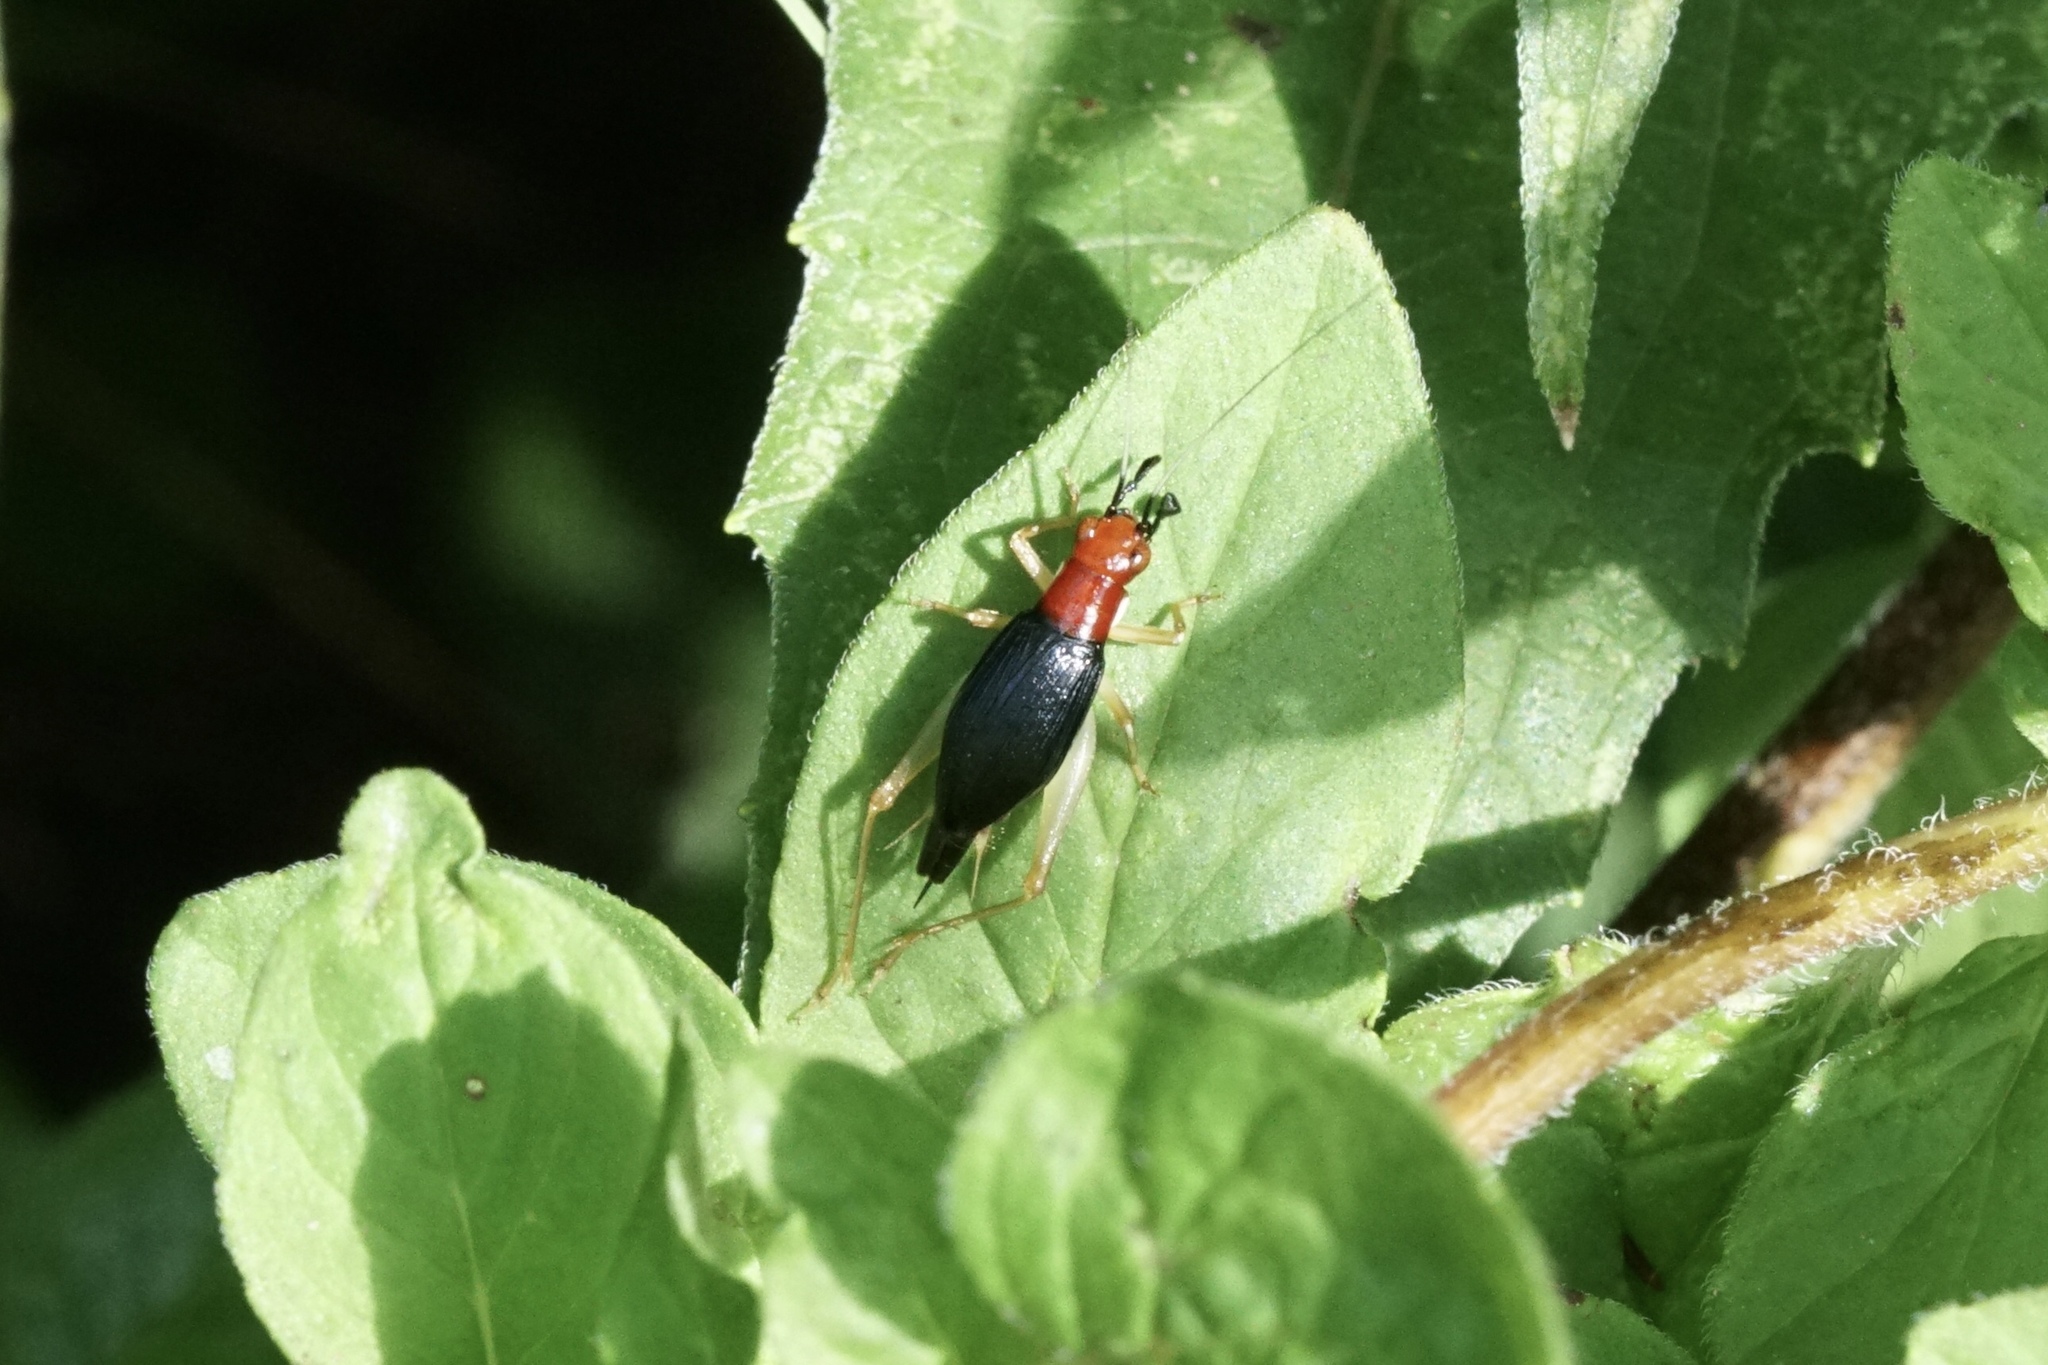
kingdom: Animalia
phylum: Arthropoda
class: Insecta
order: Orthoptera
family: Trigonidiidae
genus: Phyllopalpus
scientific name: Phyllopalpus pulchellus
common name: Handsome trig
